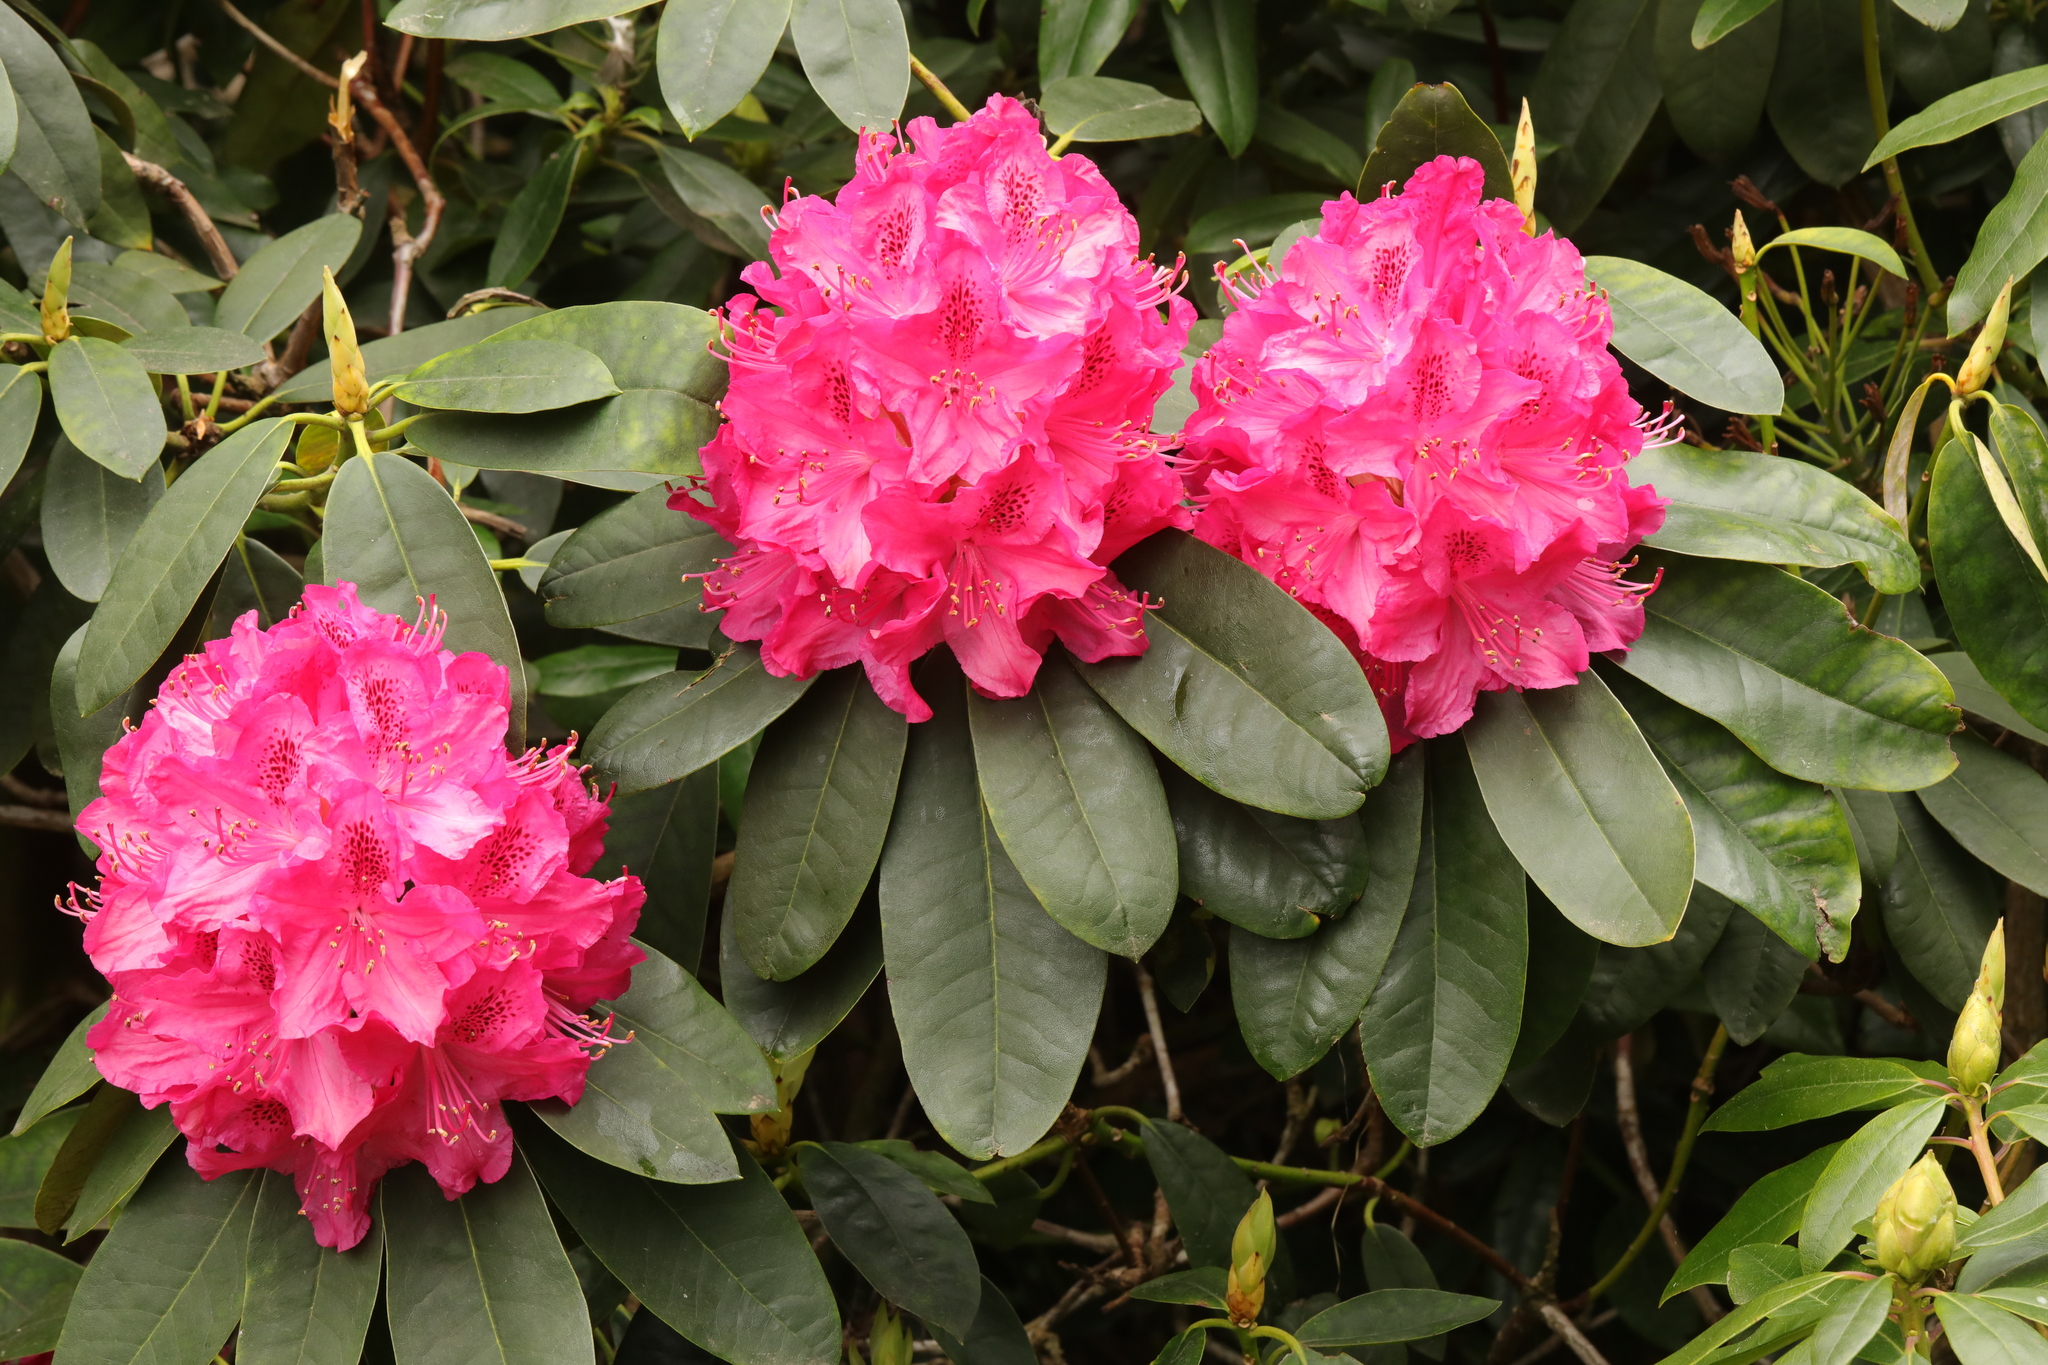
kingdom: Plantae
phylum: Tracheophyta
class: Magnoliopsida
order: Ericales
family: Ericaceae
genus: Rhododendron
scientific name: Rhododendron
